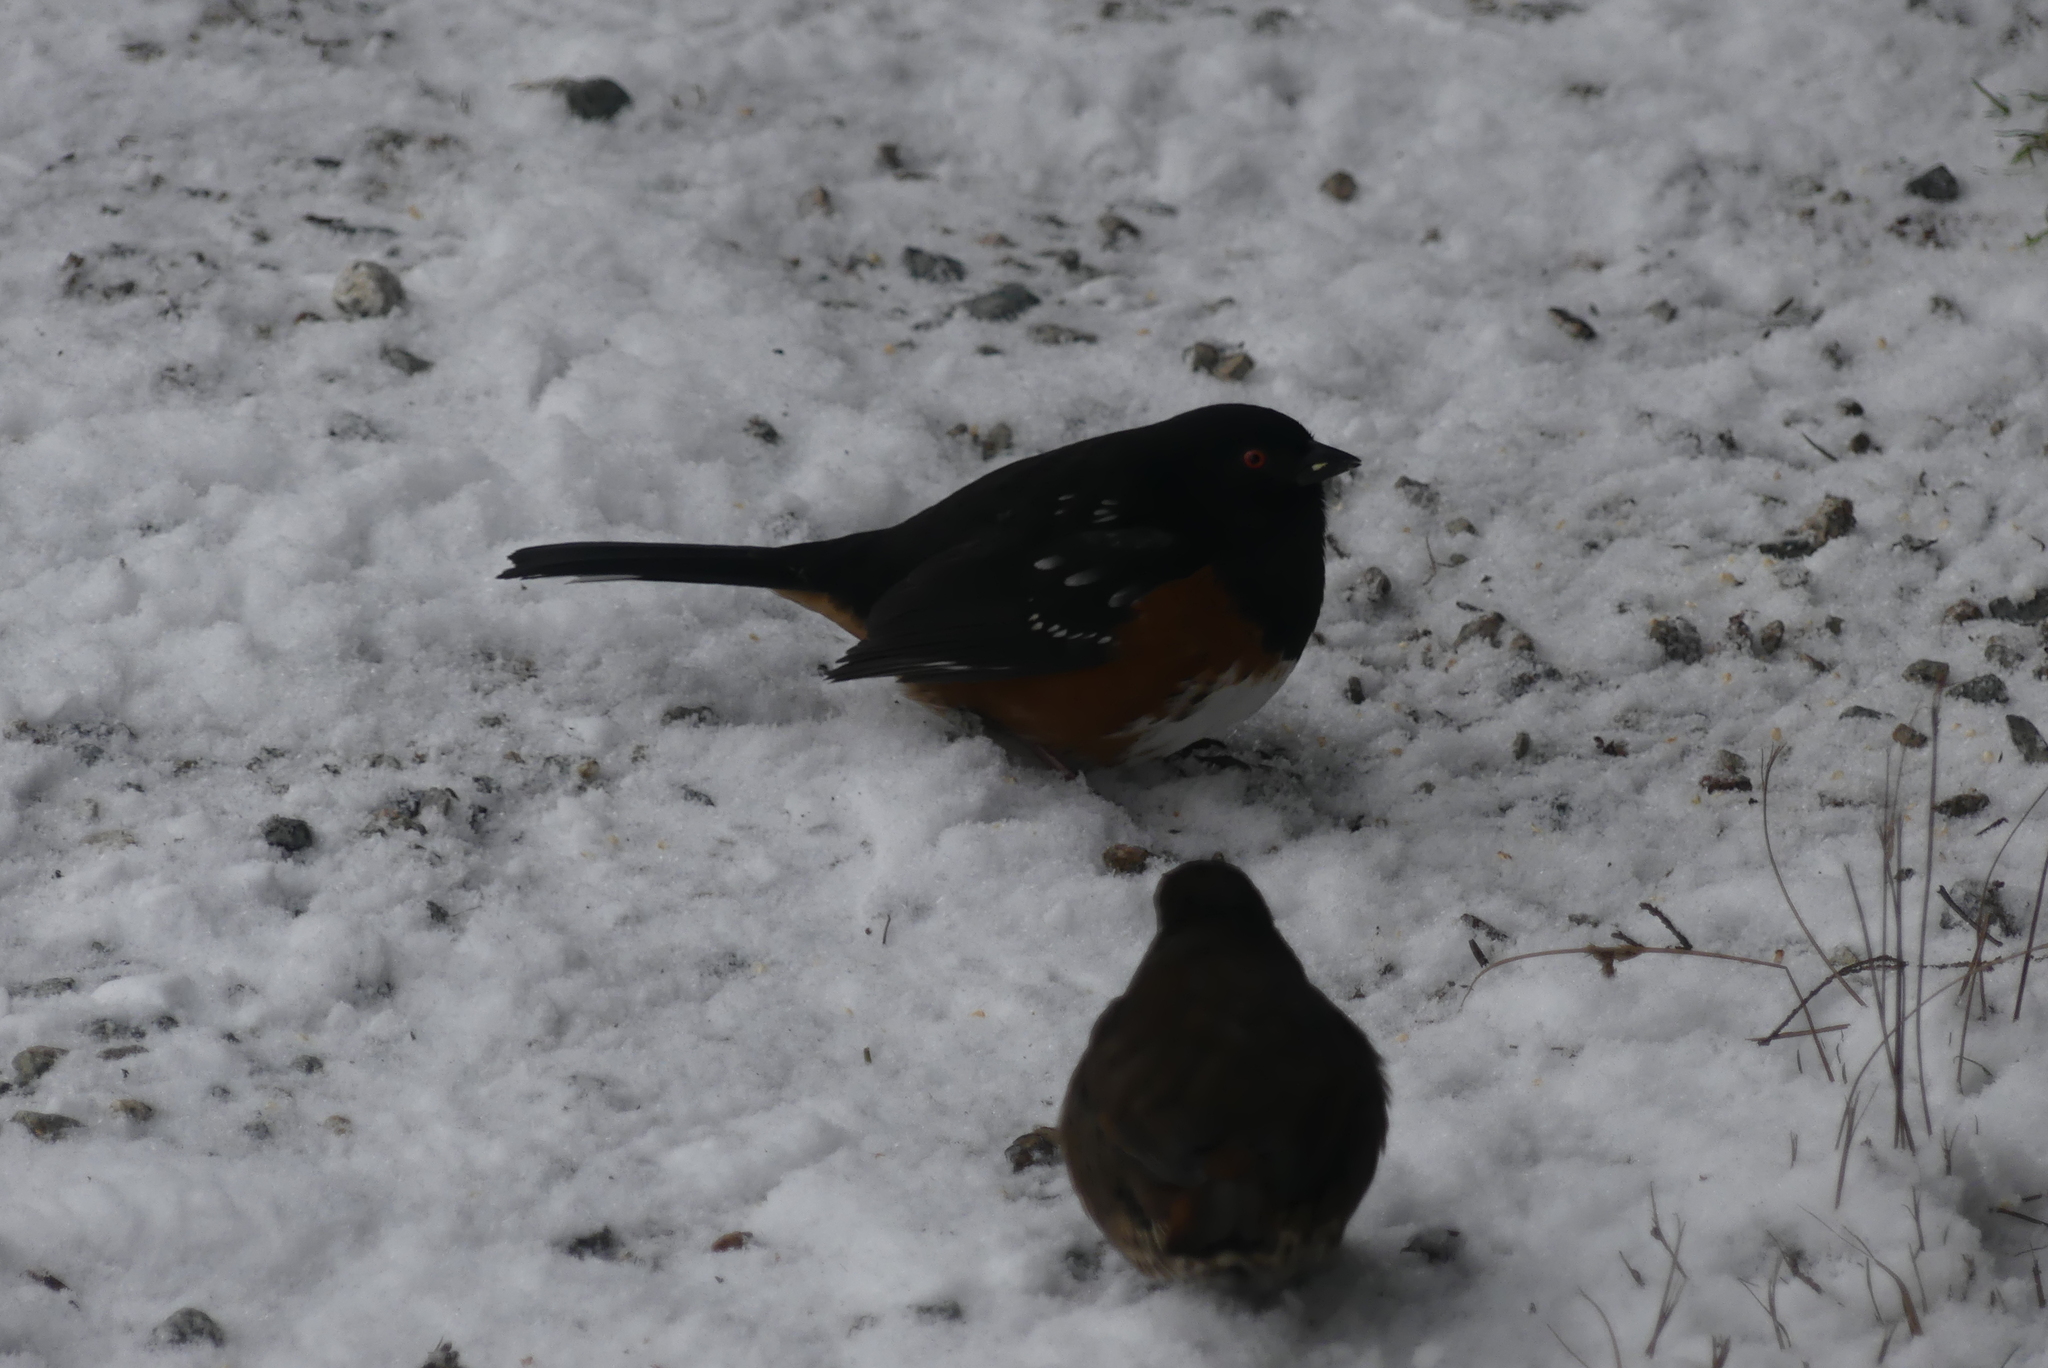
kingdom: Animalia
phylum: Chordata
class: Aves
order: Passeriformes
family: Passerellidae
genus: Pipilo
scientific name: Pipilo maculatus
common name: Spotted towhee
